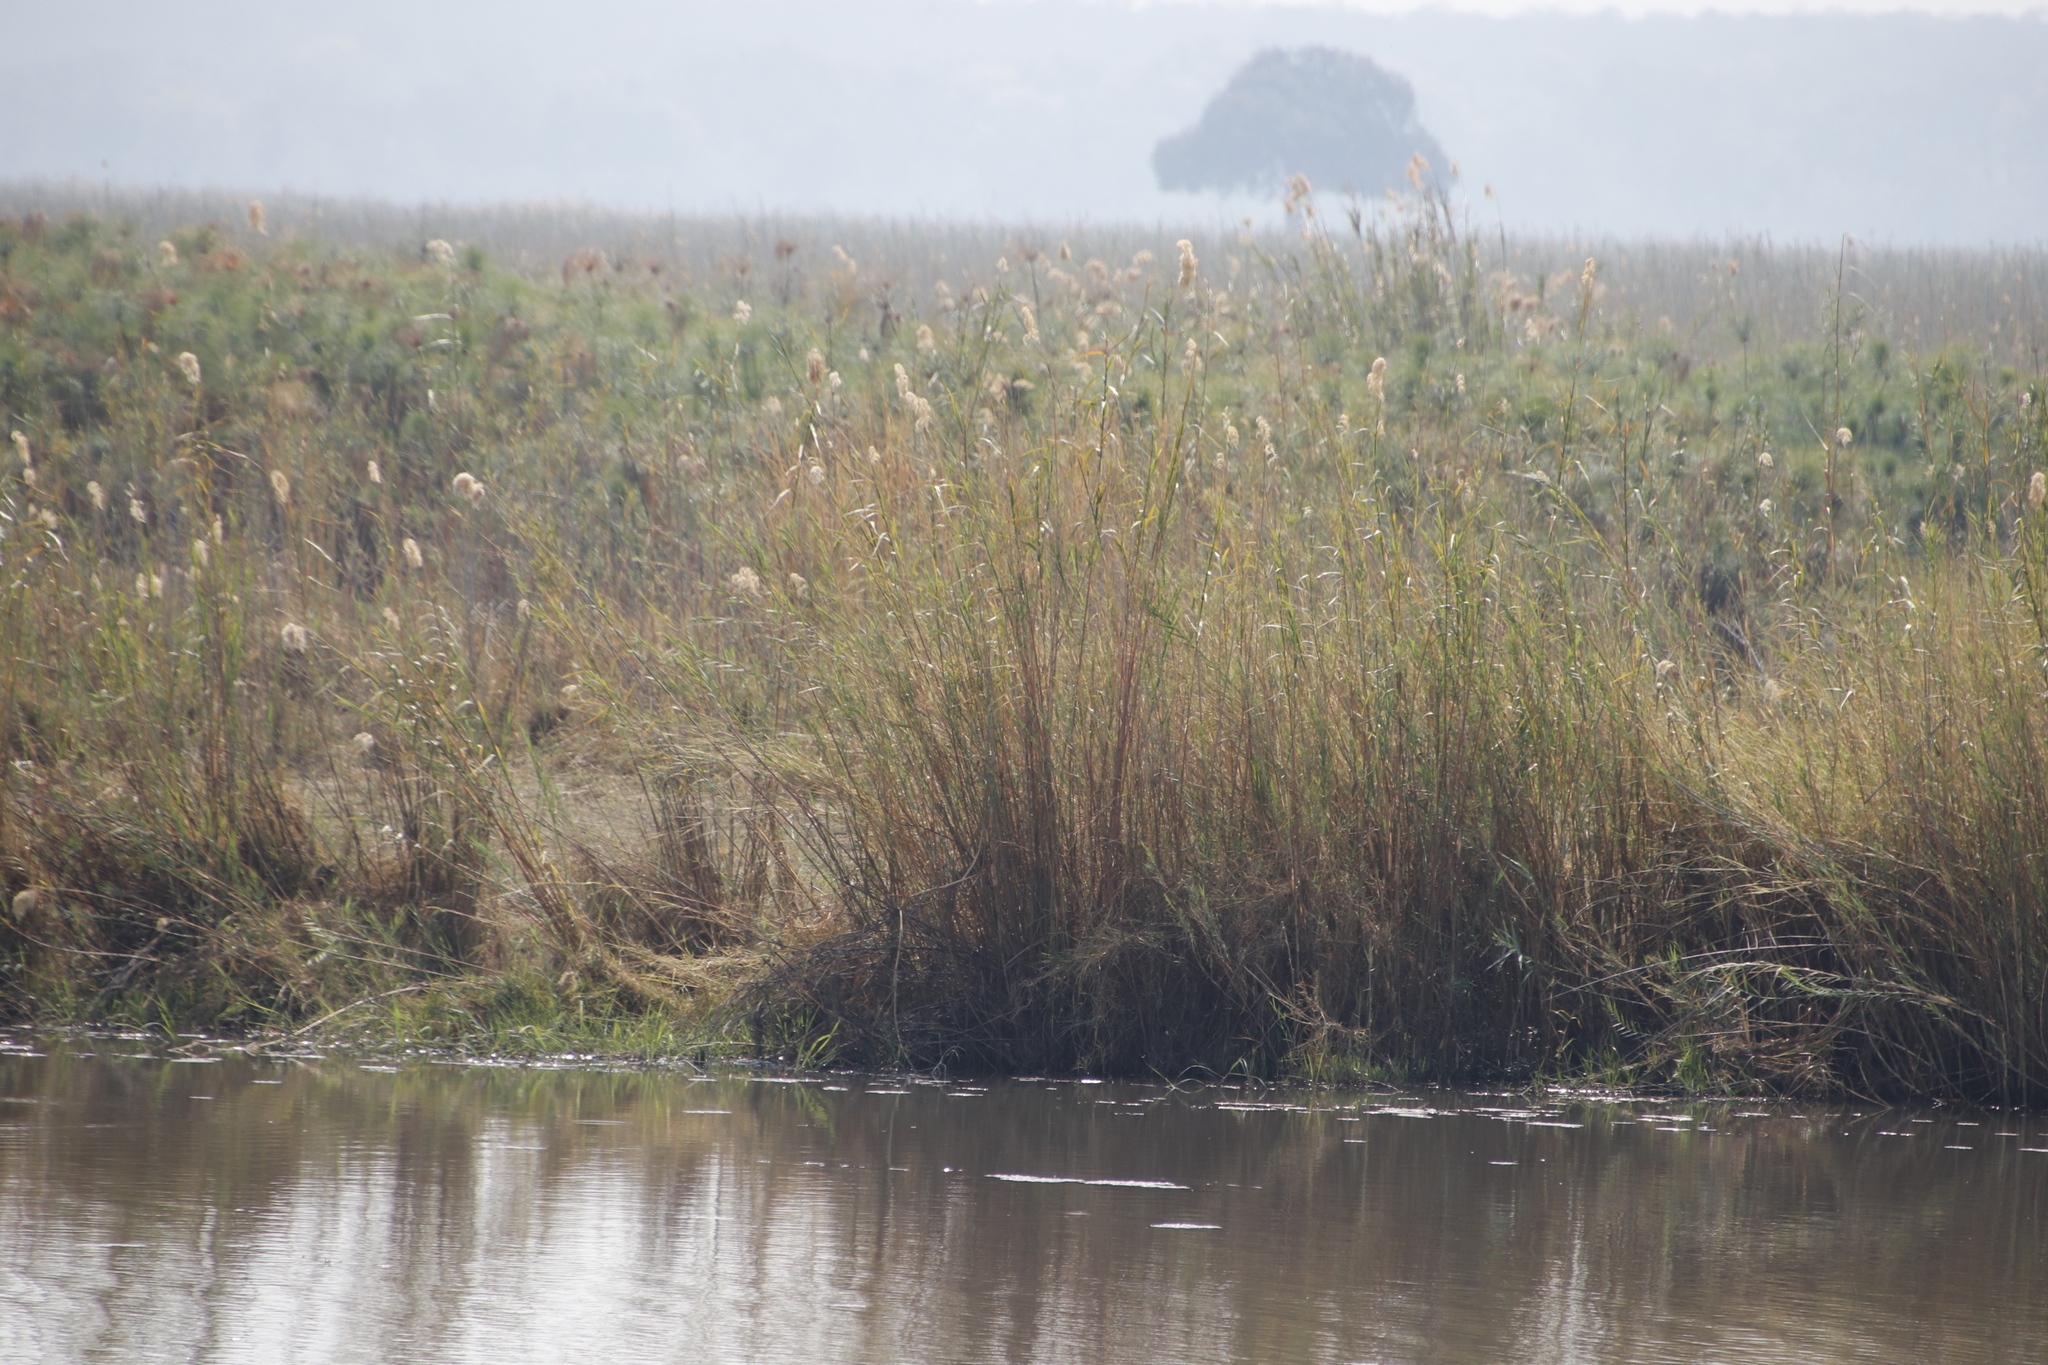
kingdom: Plantae
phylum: Tracheophyta
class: Liliopsida
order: Poales
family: Poaceae
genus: Phragmites
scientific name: Phragmites australis
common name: Common reed
